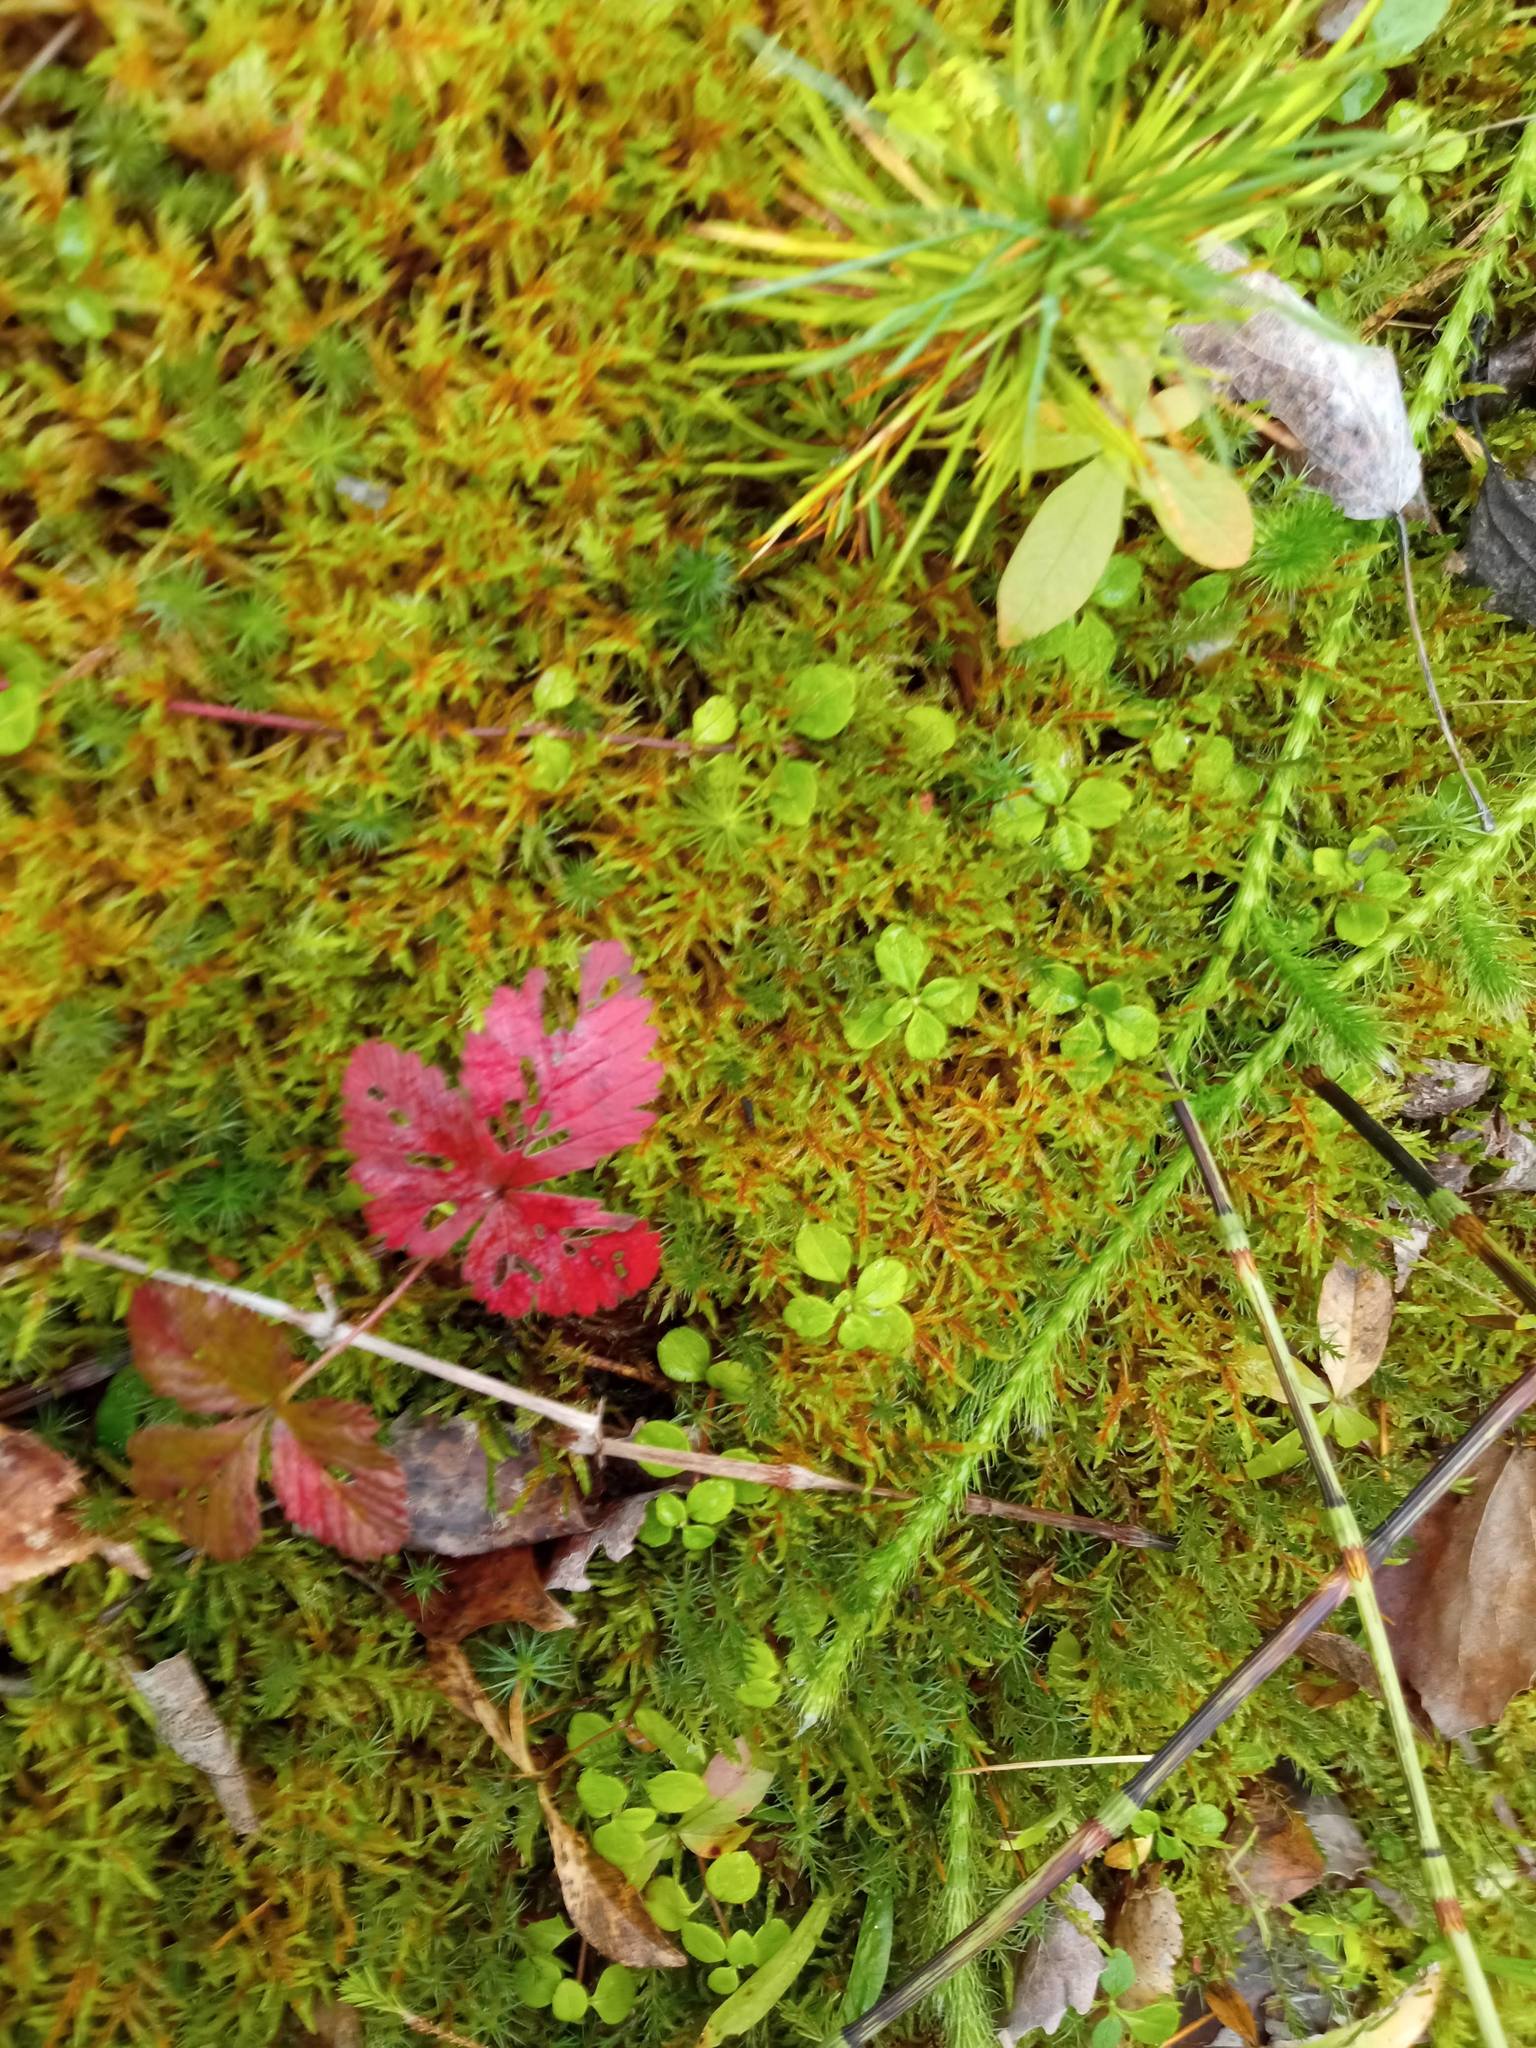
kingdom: Plantae
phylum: Tracheophyta
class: Magnoliopsida
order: Rosales
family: Rosaceae
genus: Rubus
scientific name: Rubus arcticus
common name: Arctic bramble
